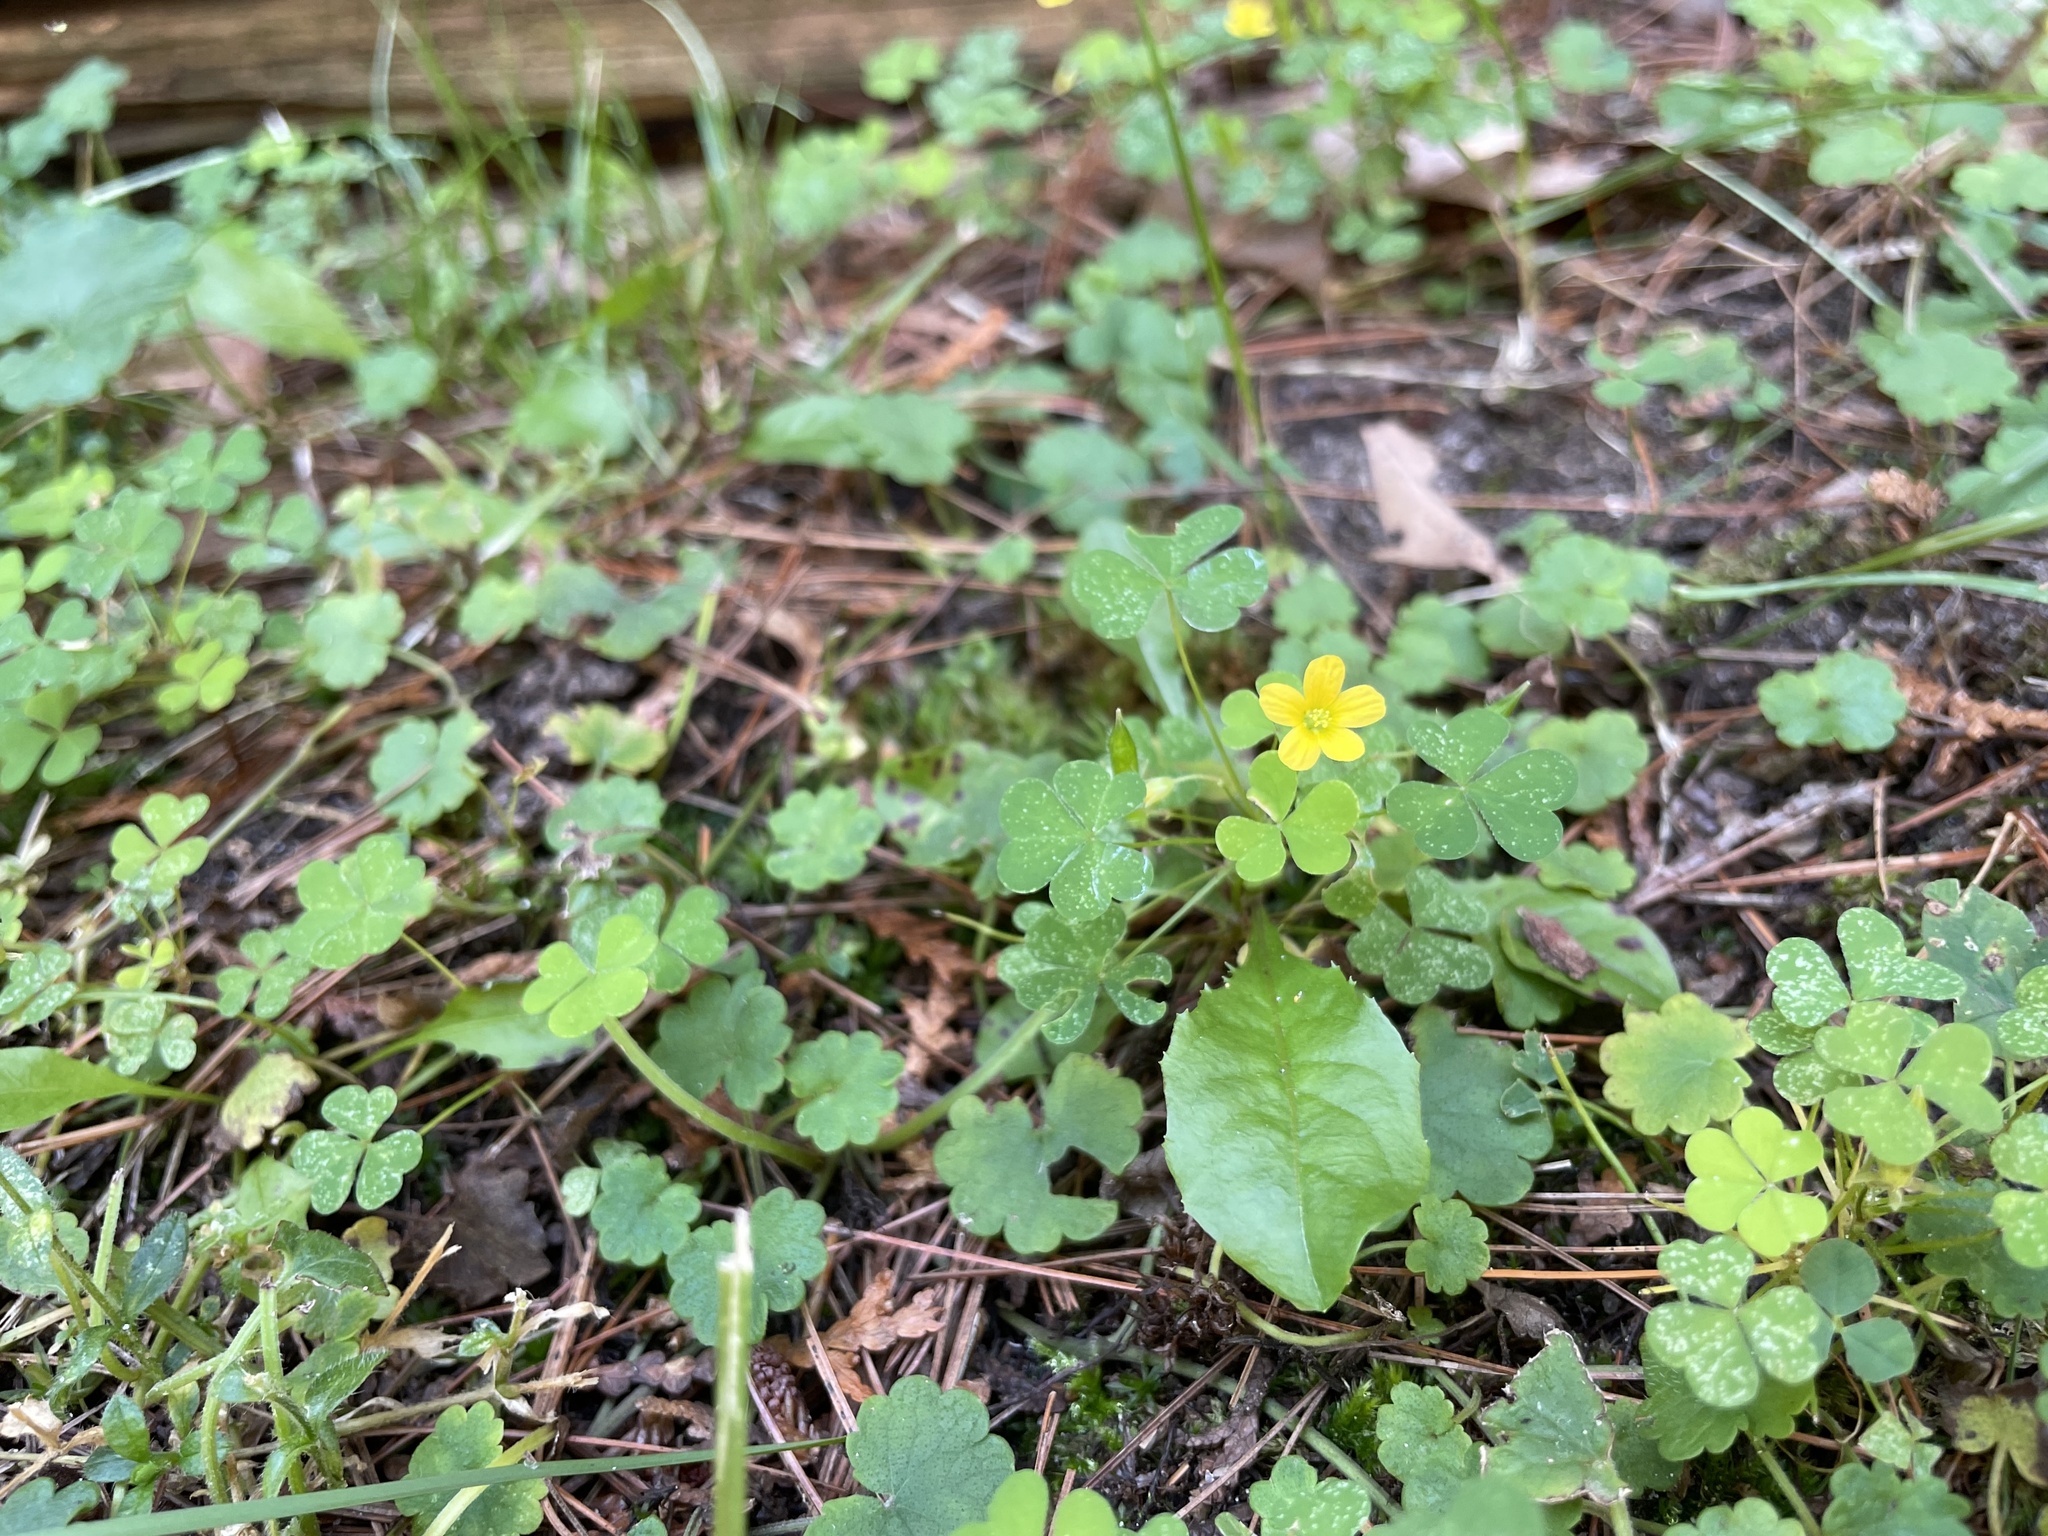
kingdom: Plantae
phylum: Tracheophyta
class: Magnoliopsida
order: Oxalidales
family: Oxalidaceae
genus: Oxalis
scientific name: Oxalis stricta
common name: Upright yellow-sorrel
